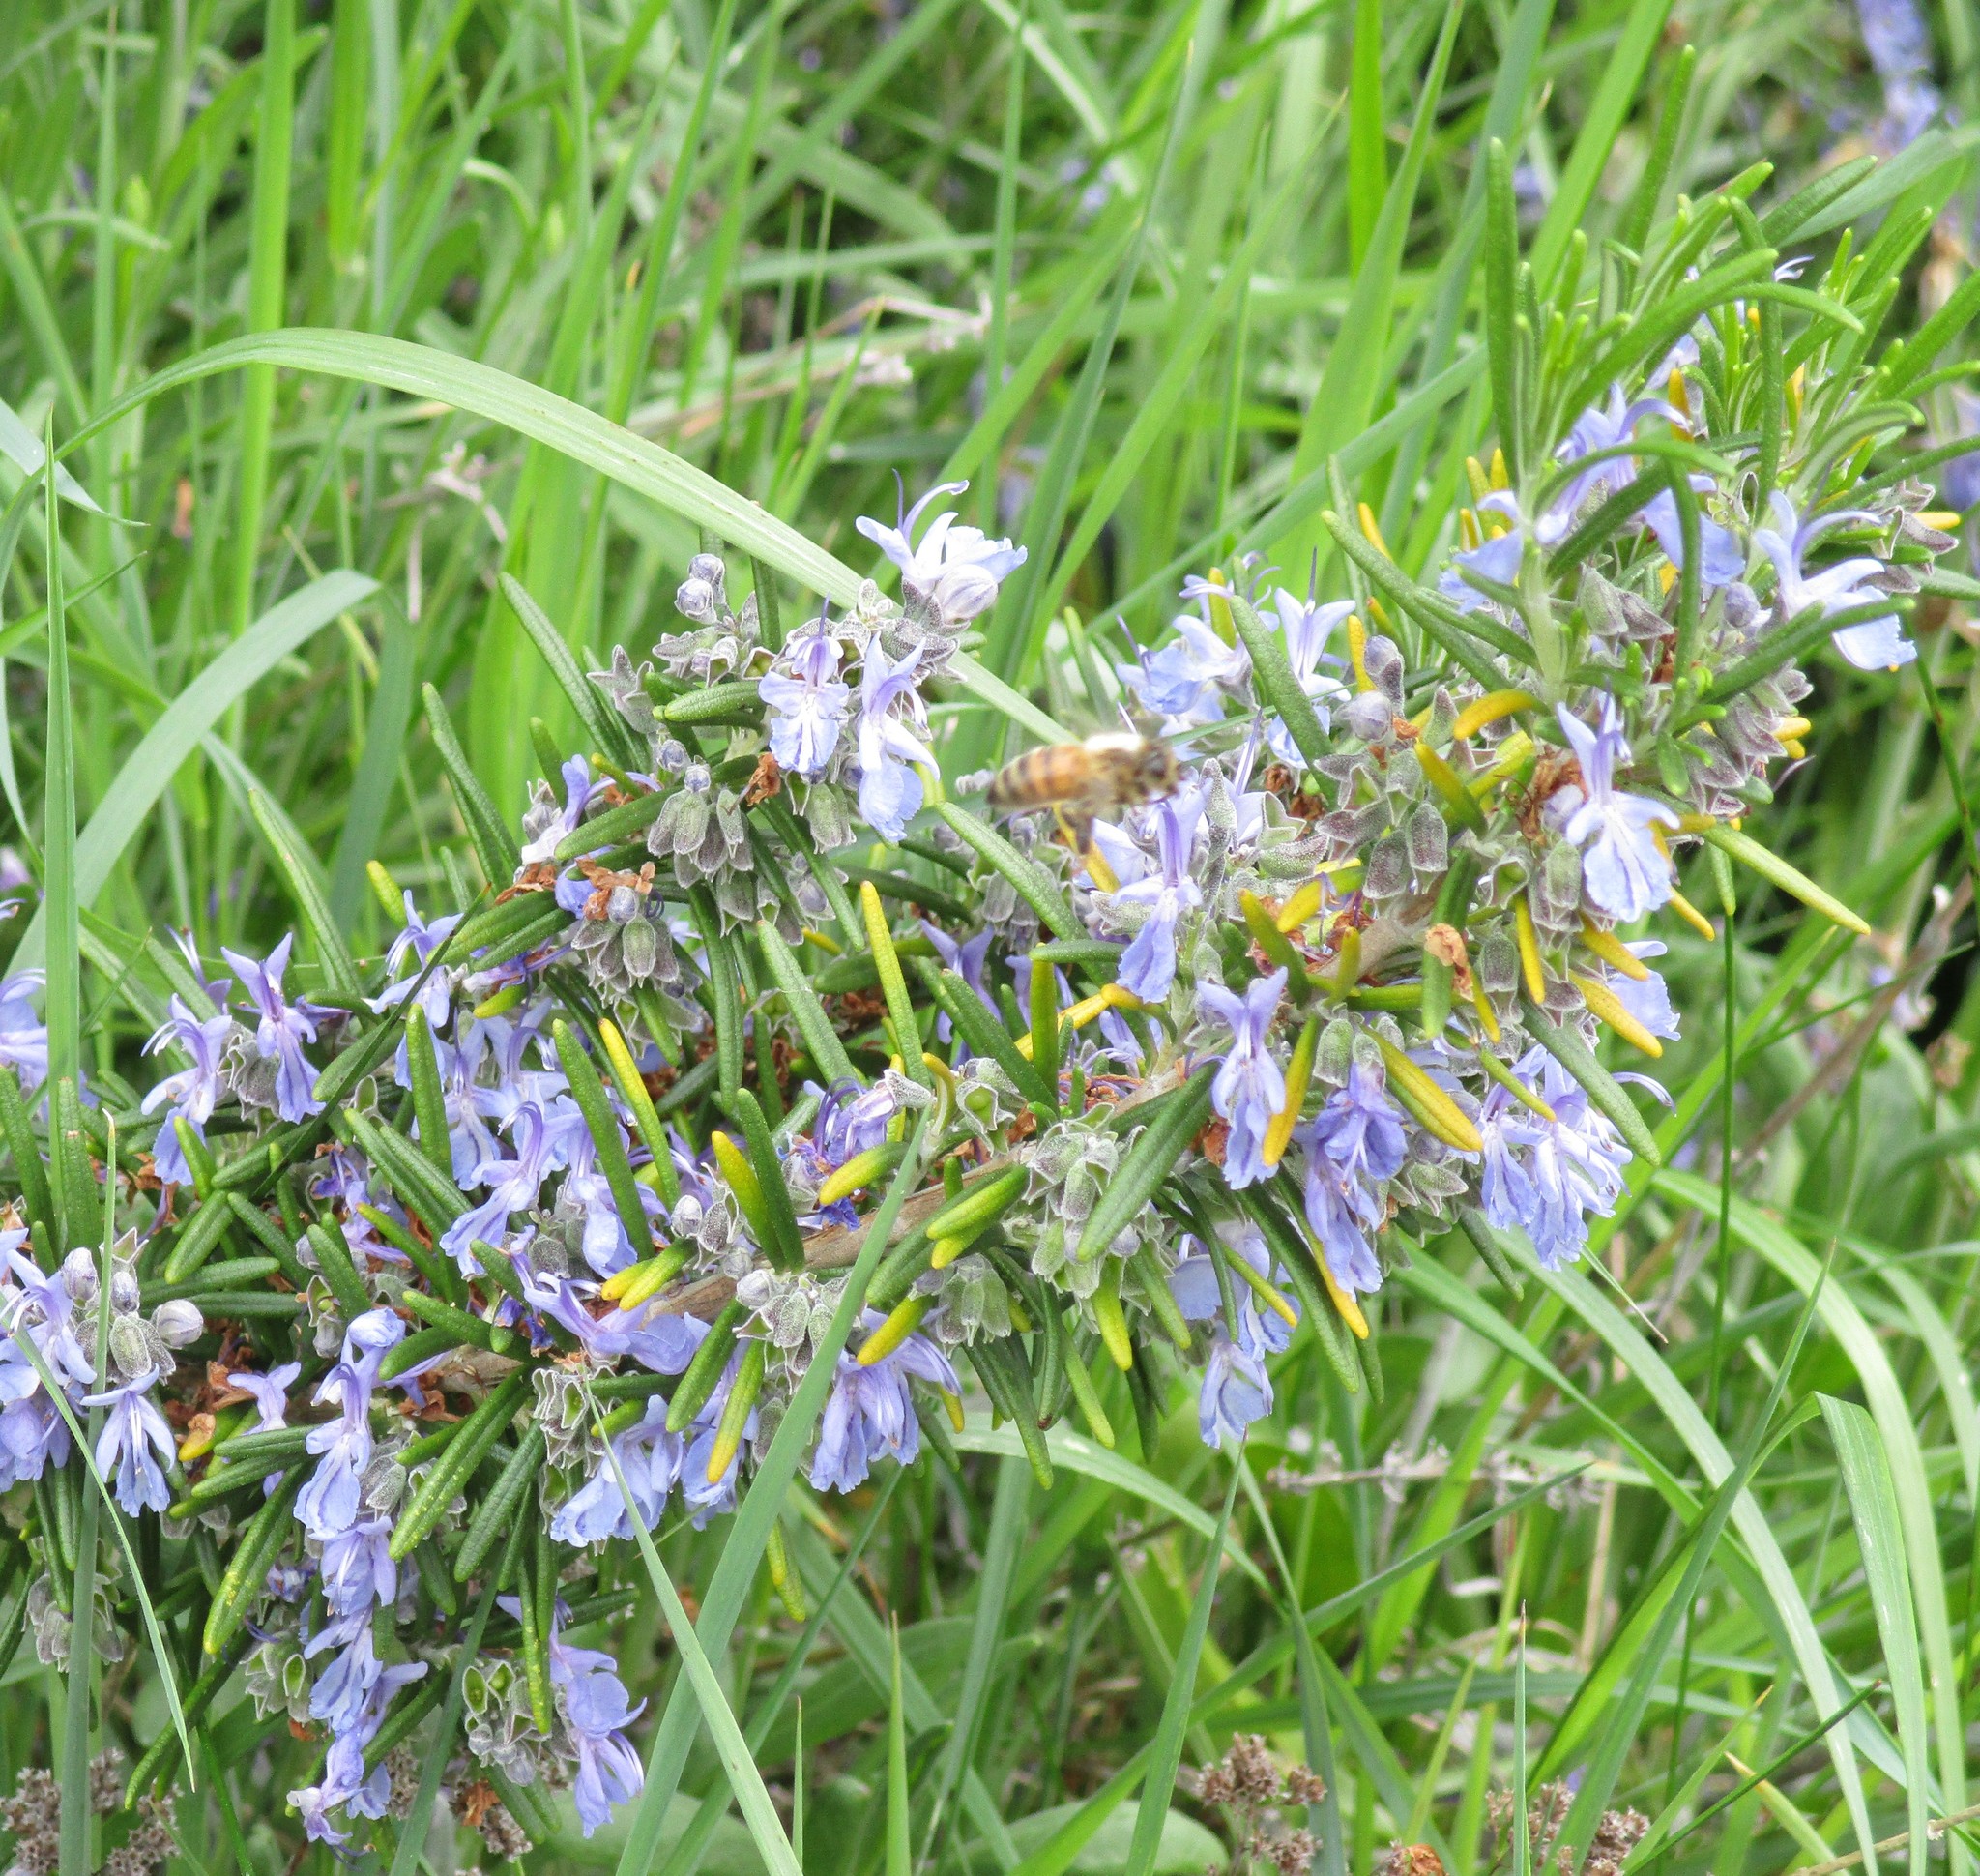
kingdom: Animalia
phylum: Arthropoda
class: Insecta
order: Hymenoptera
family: Apidae
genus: Apis
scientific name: Apis mellifera
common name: Honey bee
